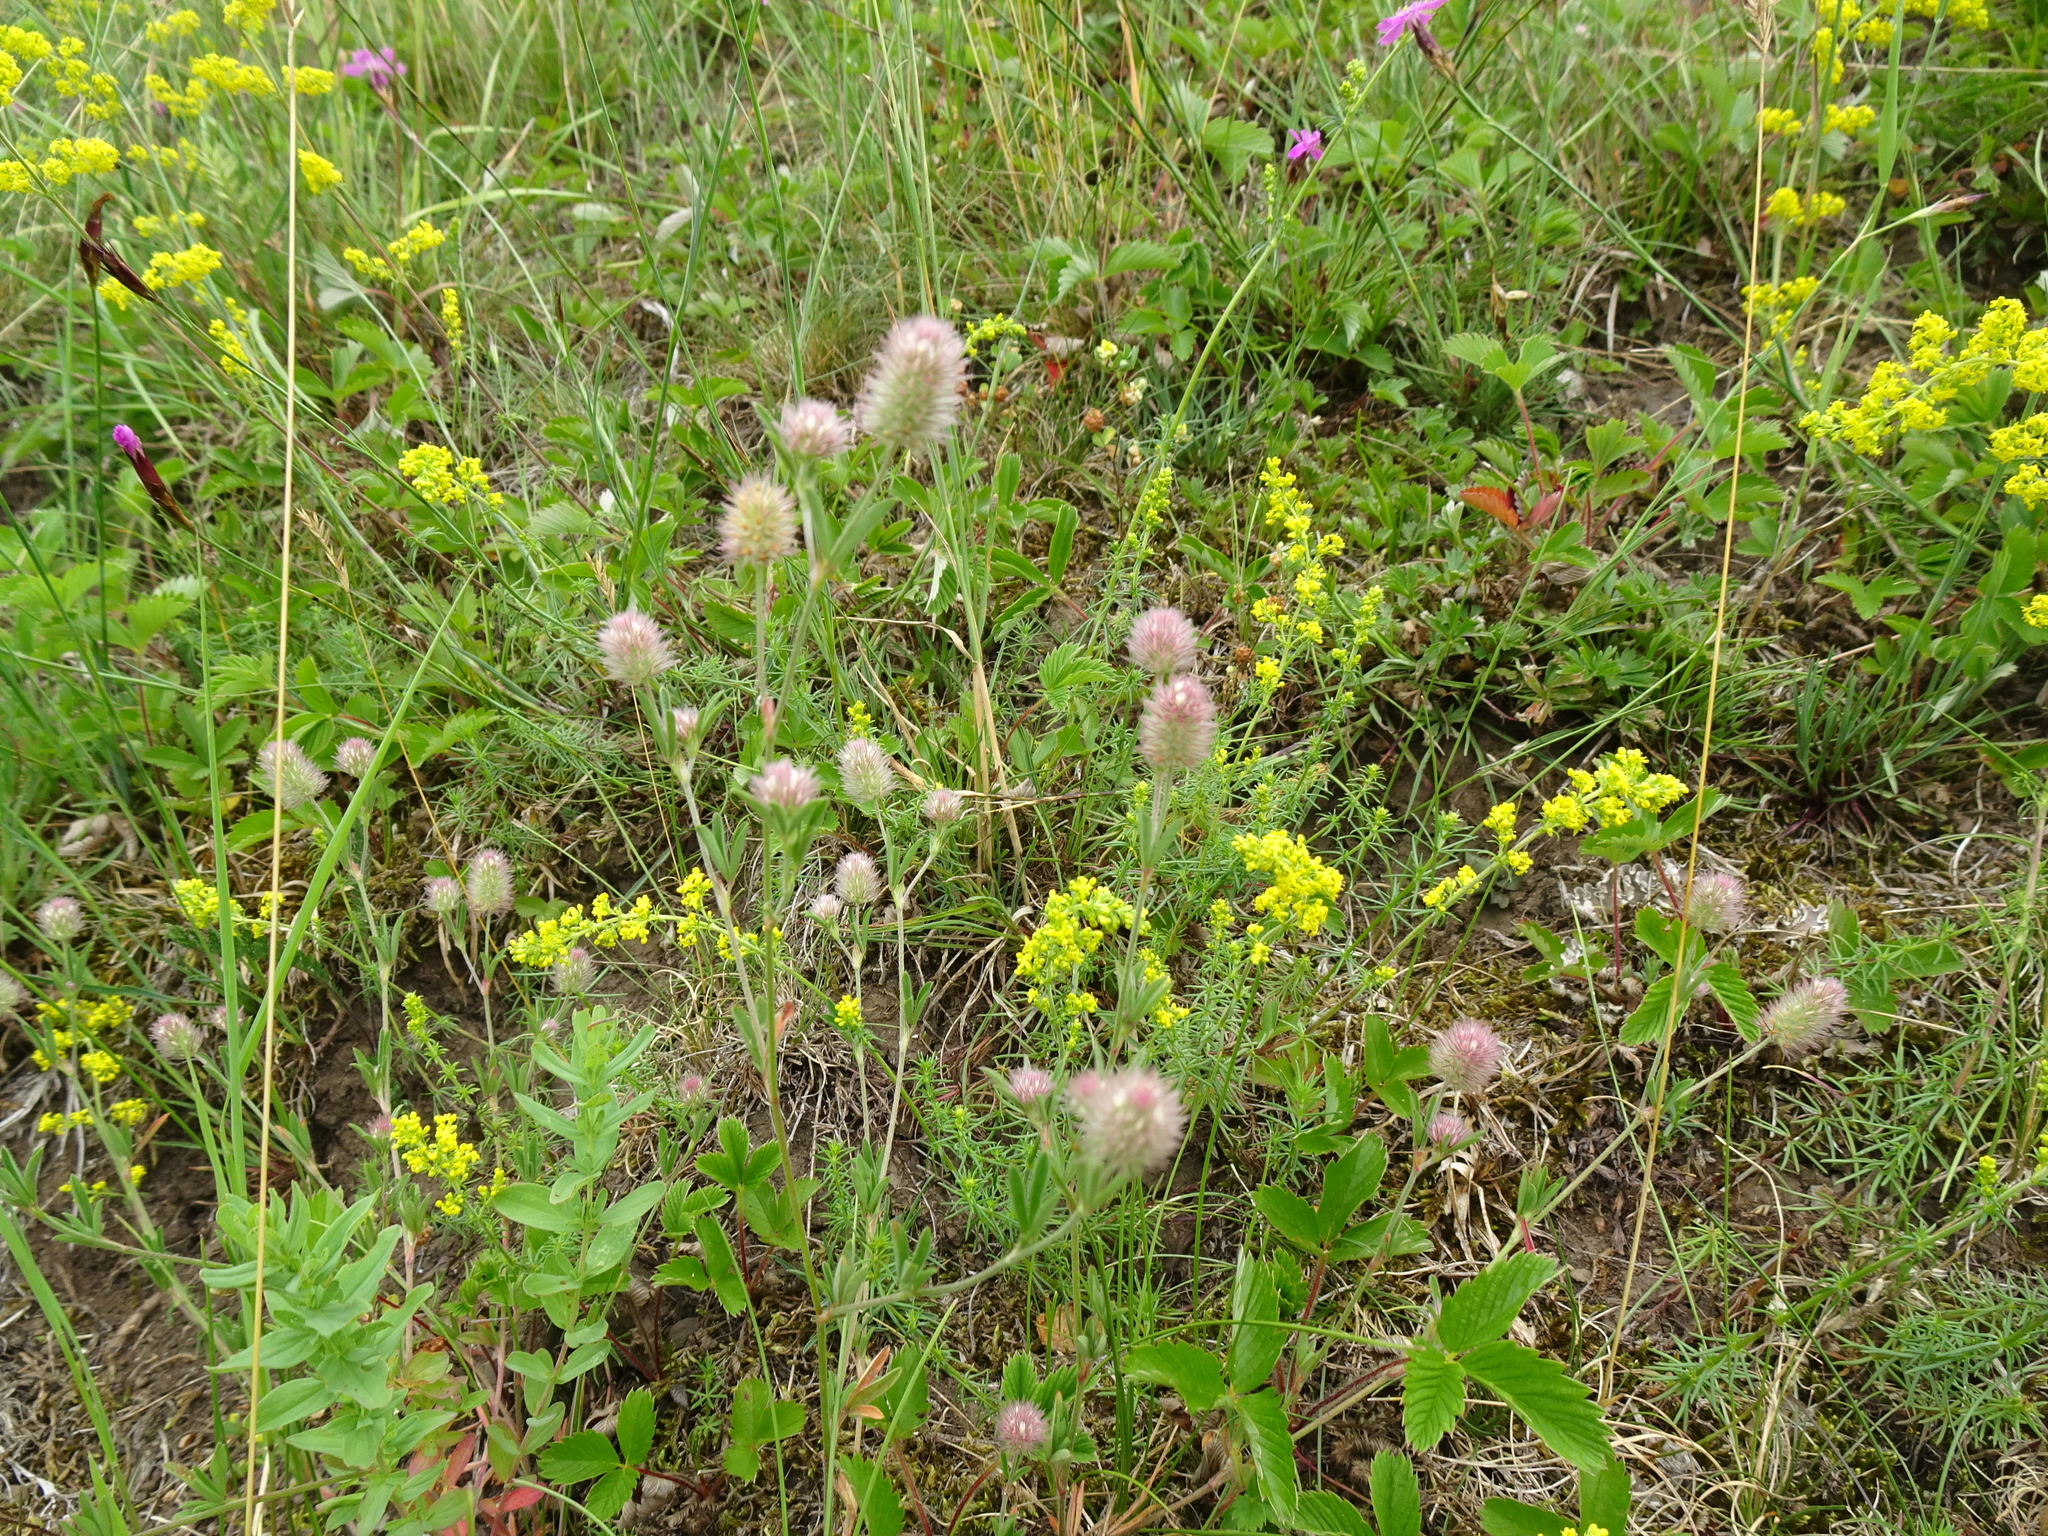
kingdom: Plantae
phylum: Tracheophyta
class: Magnoliopsida
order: Fabales
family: Fabaceae
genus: Trifolium
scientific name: Trifolium arvense
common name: Hare's-foot clover
